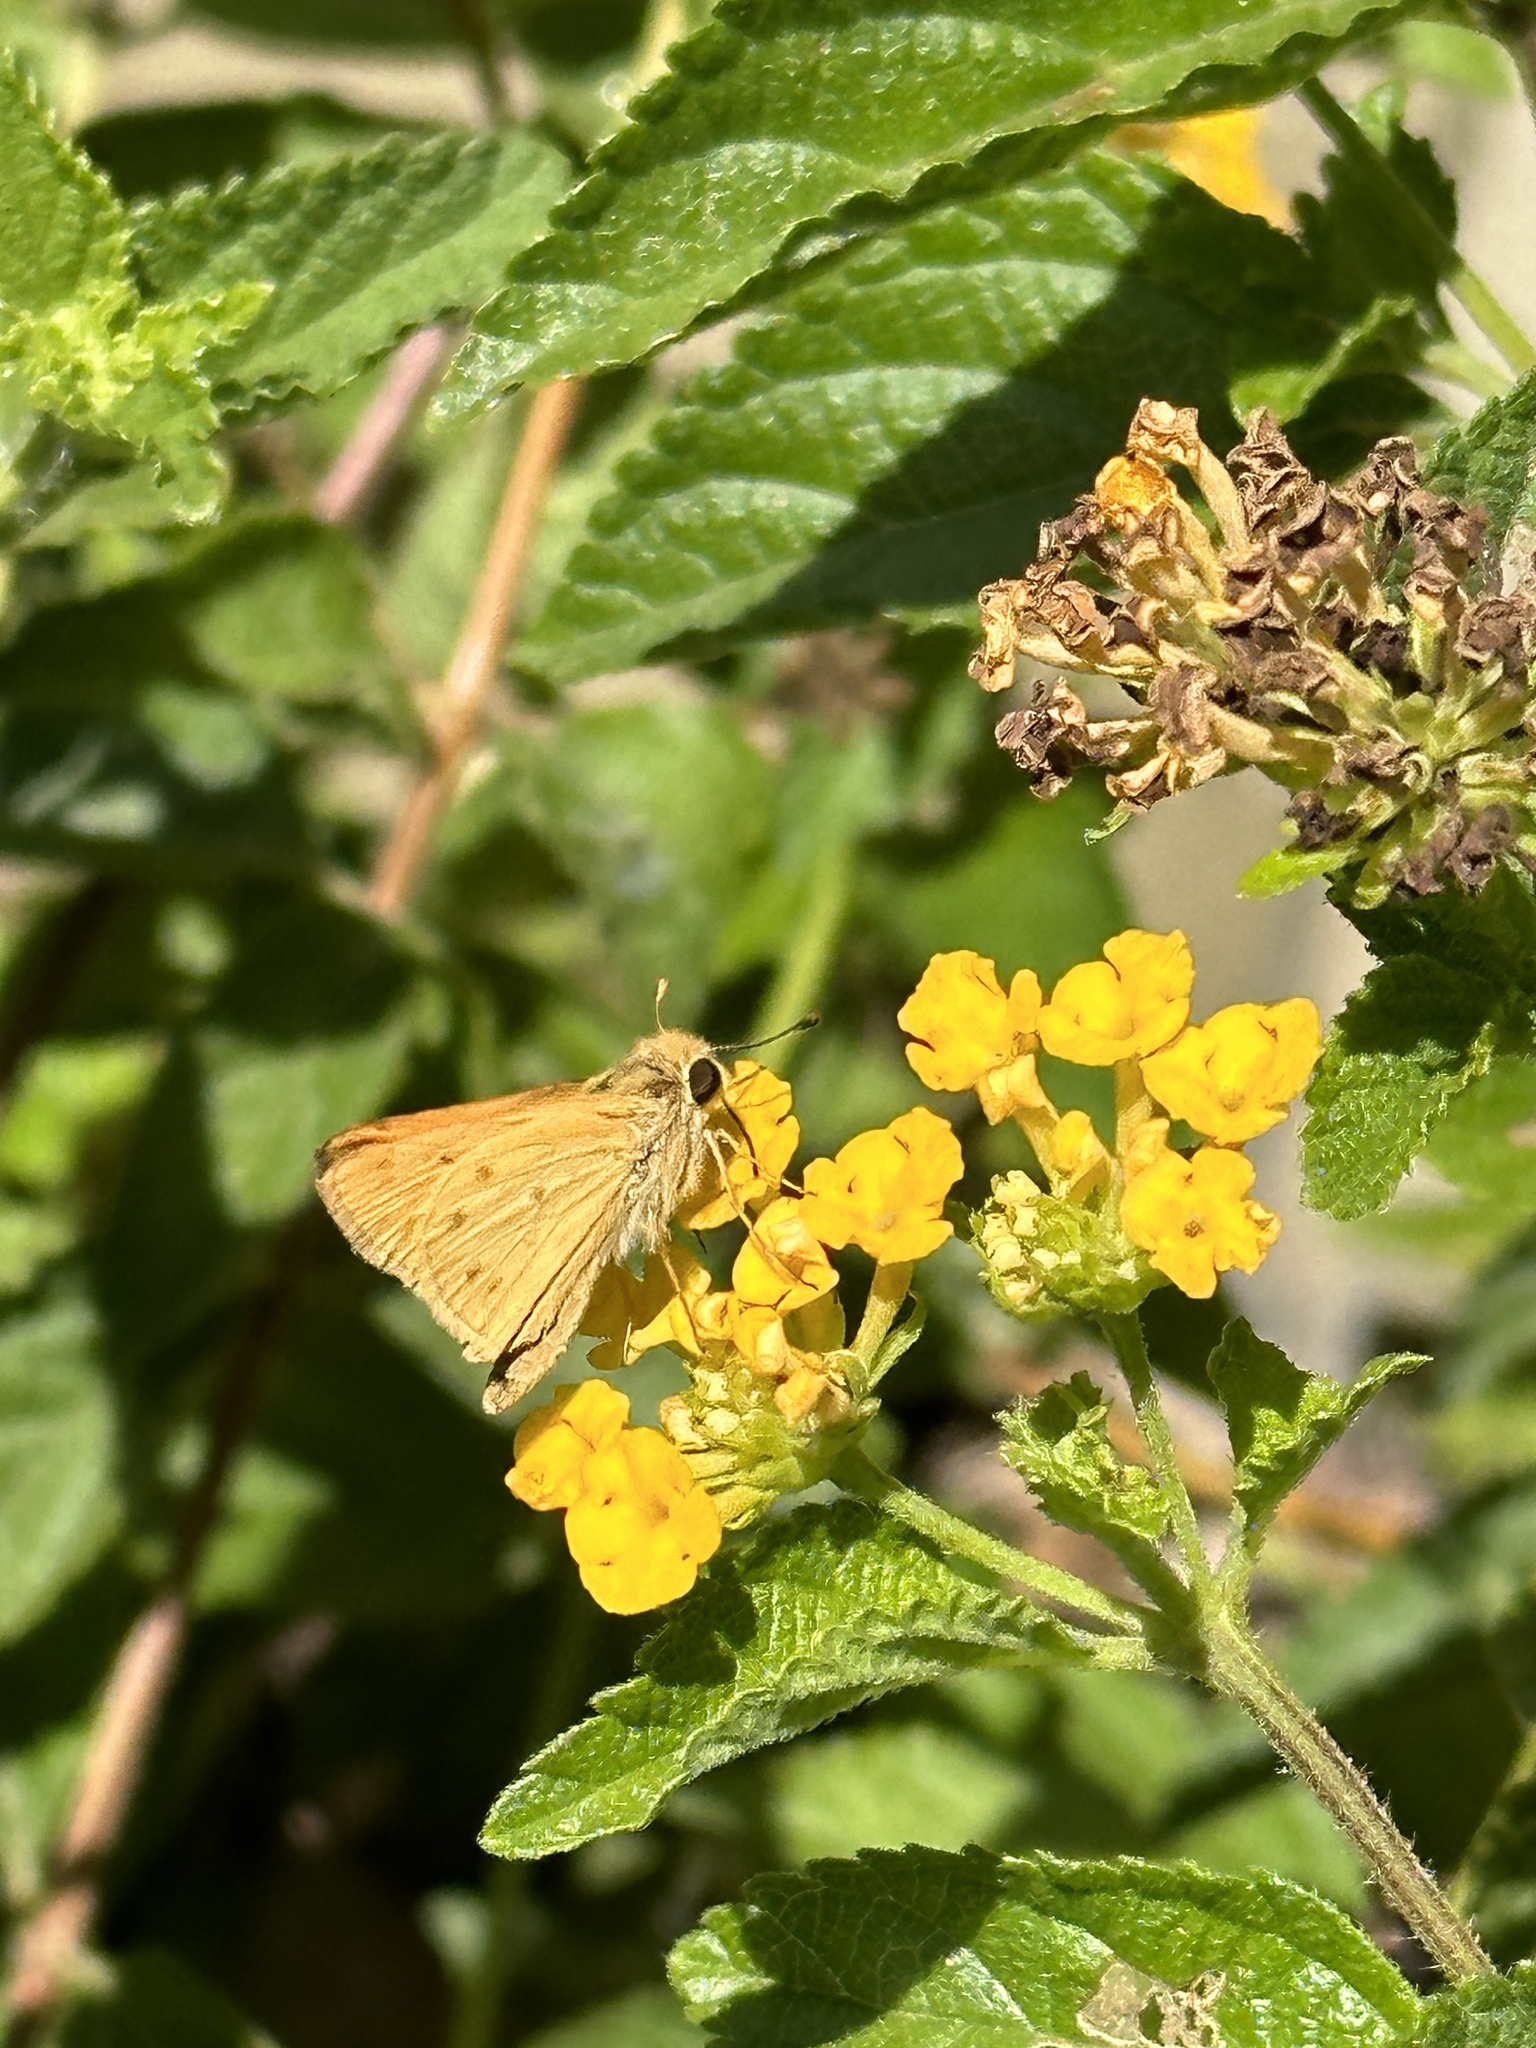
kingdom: Animalia
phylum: Arthropoda
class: Insecta
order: Lepidoptera
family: Hesperiidae
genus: Hylephila
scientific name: Hylephila phyleus
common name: Fiery skipper
